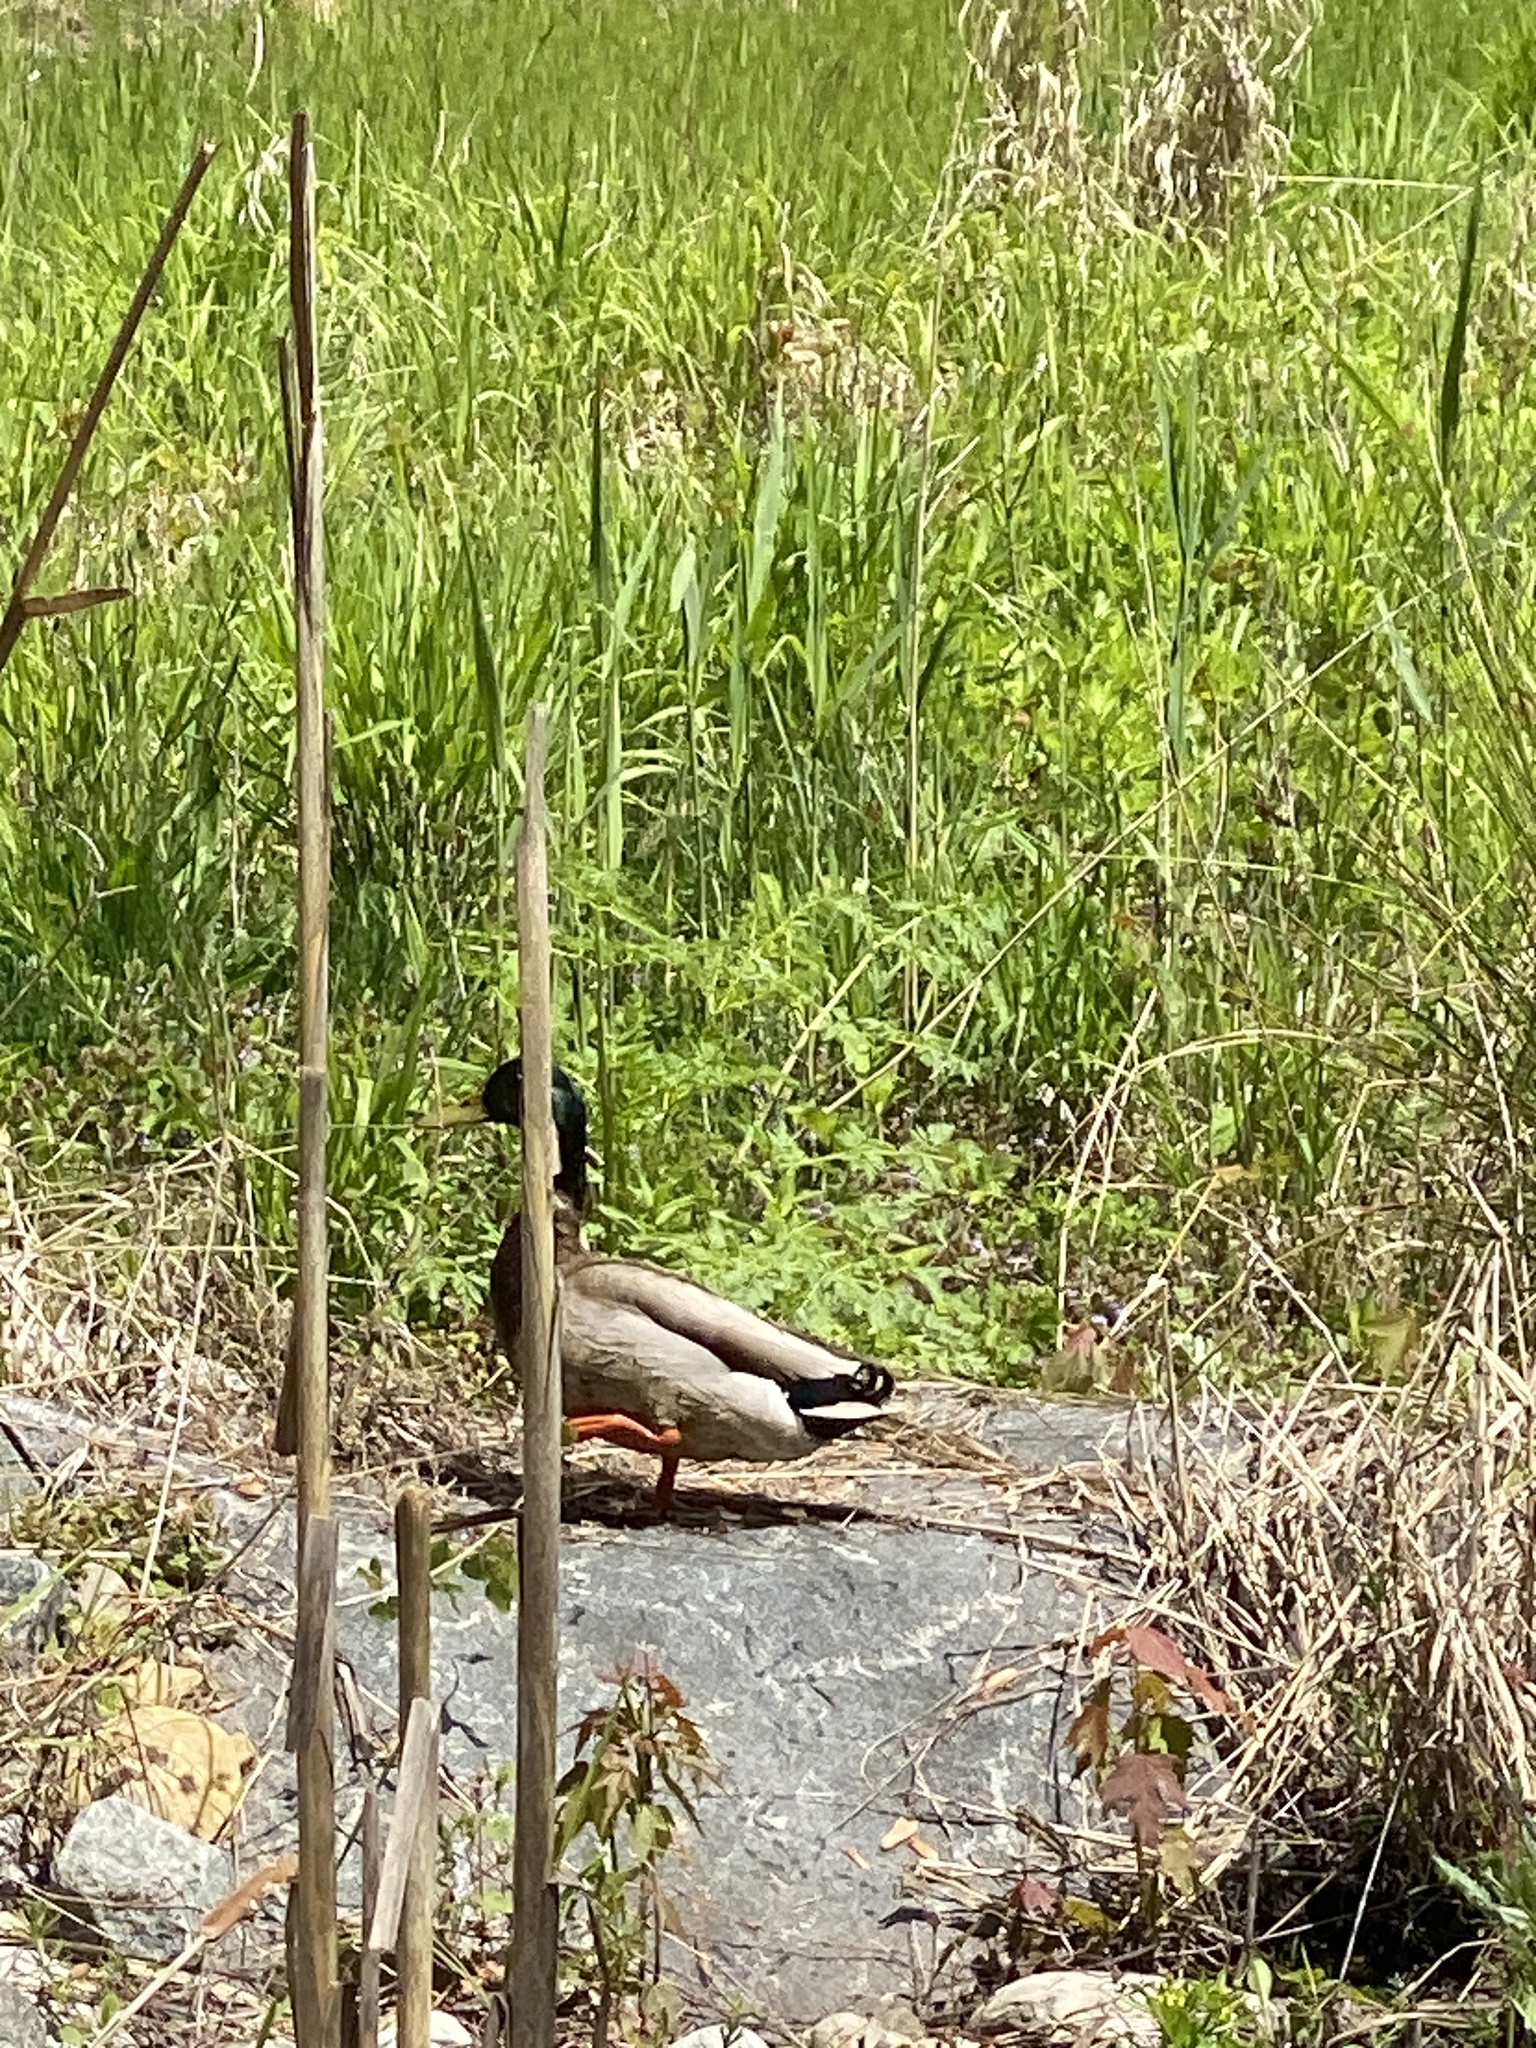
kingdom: Animalia
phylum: Chordata
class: Aves
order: Anseriformes
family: Anatidae
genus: Anas
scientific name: Anas platyrhynchos
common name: Mallard
